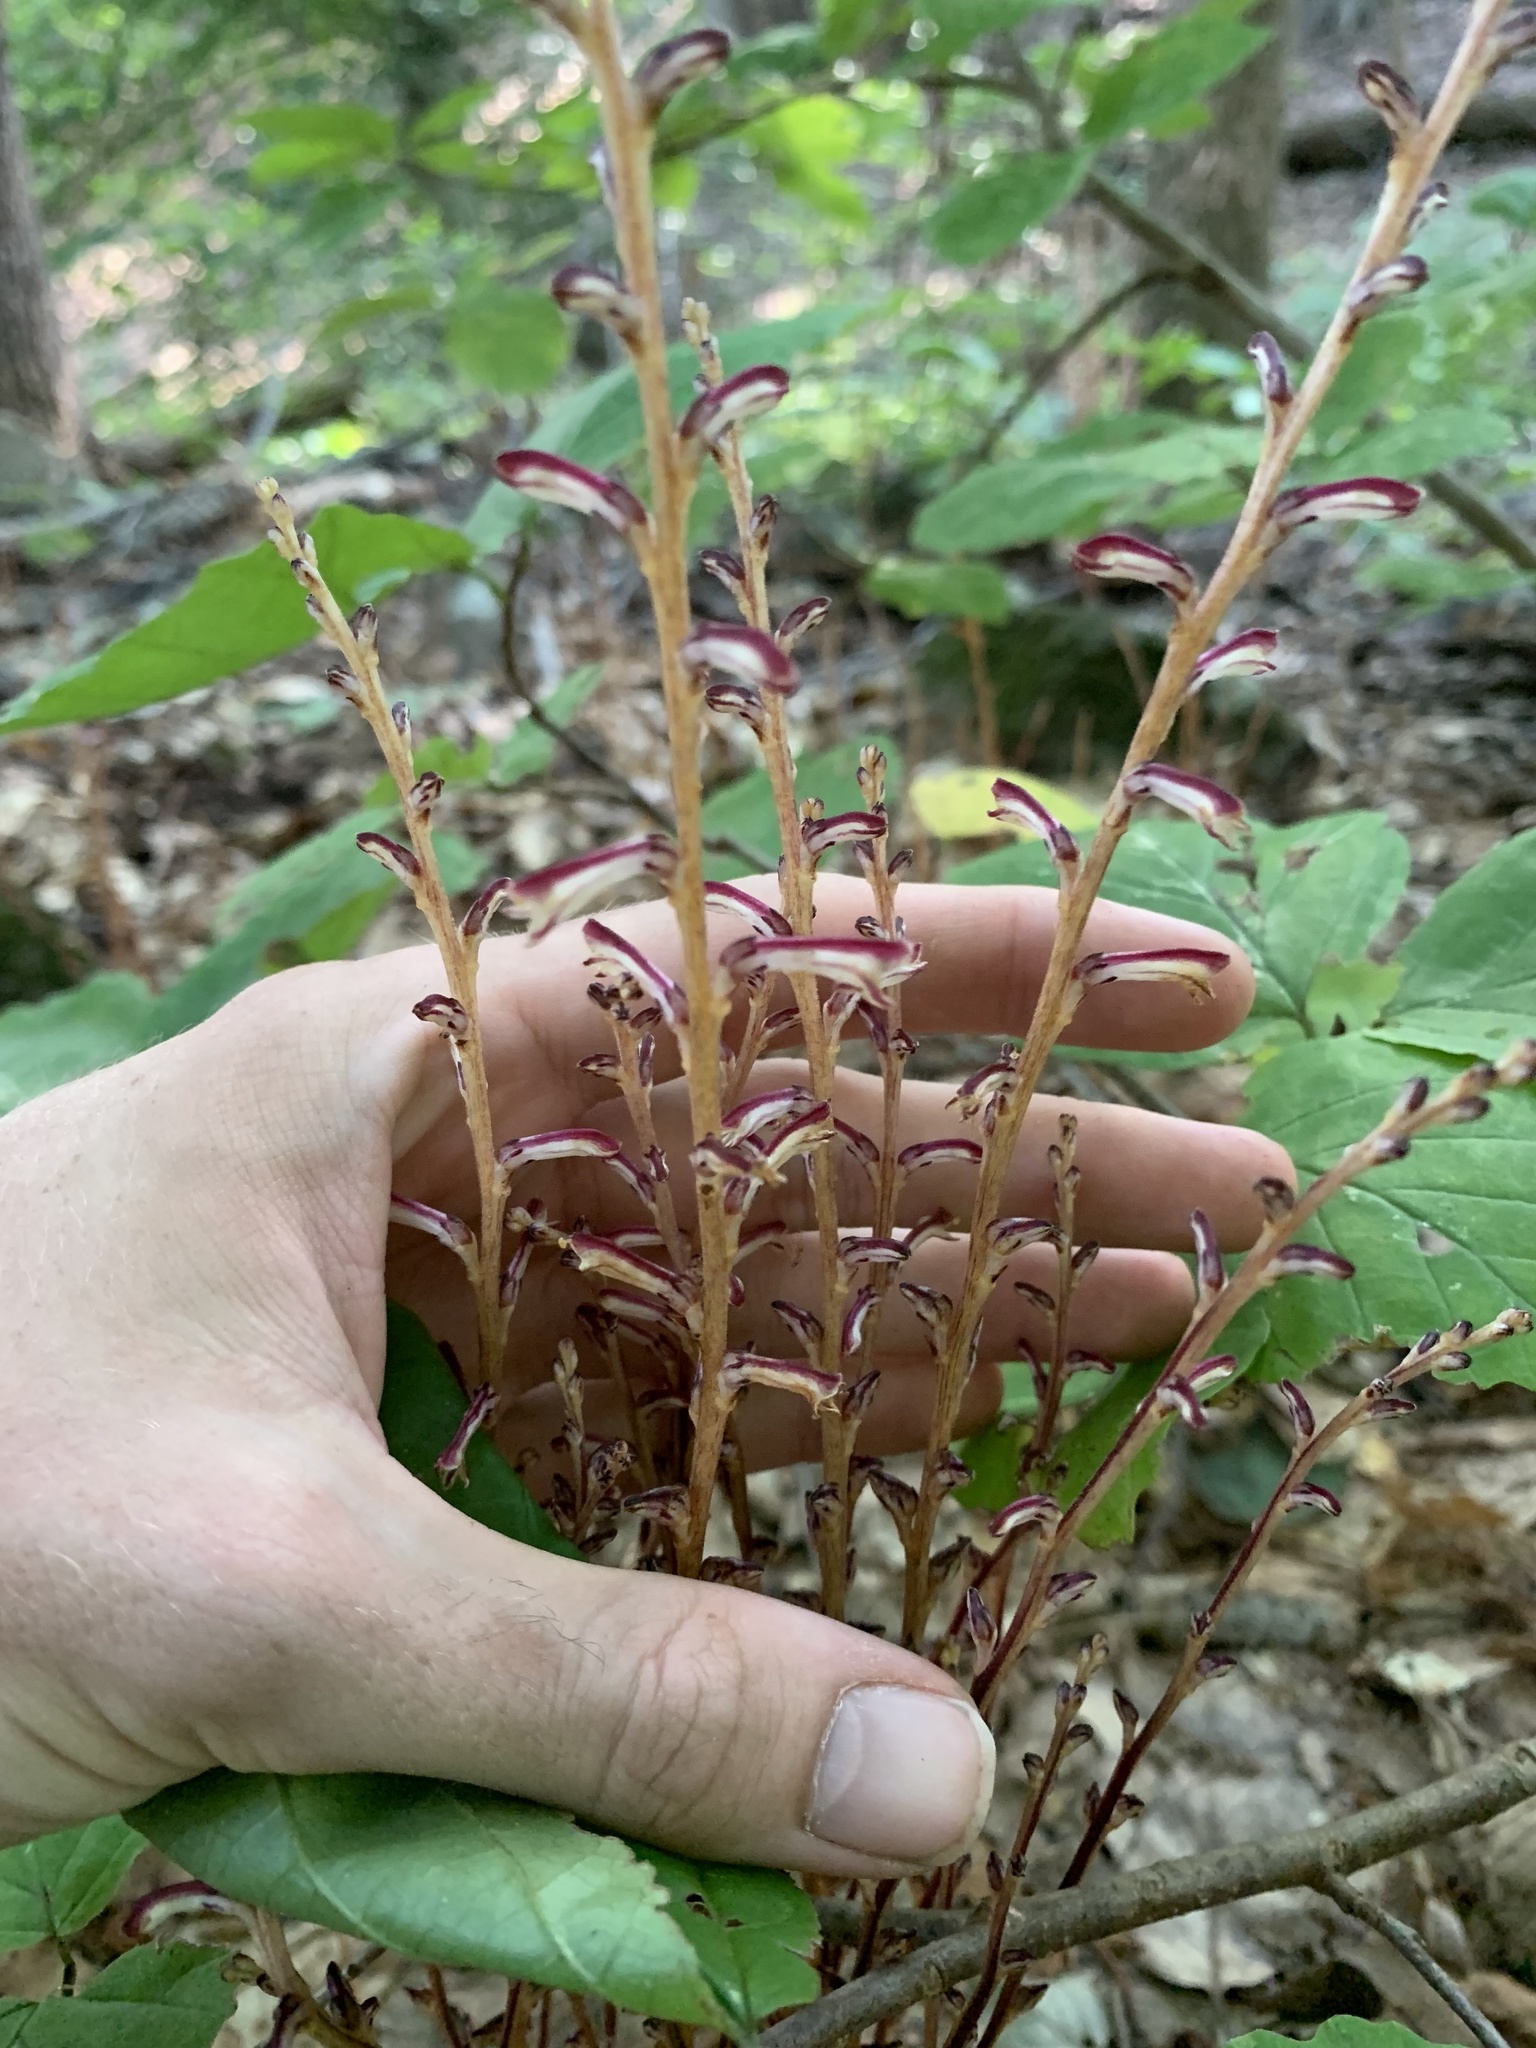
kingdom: Plantae
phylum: Tracheophyta
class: Magnoliopsida
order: Lamiales
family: Orobanchaceae
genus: Epifagus
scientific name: Epifagus virginiana
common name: Beechdrops
